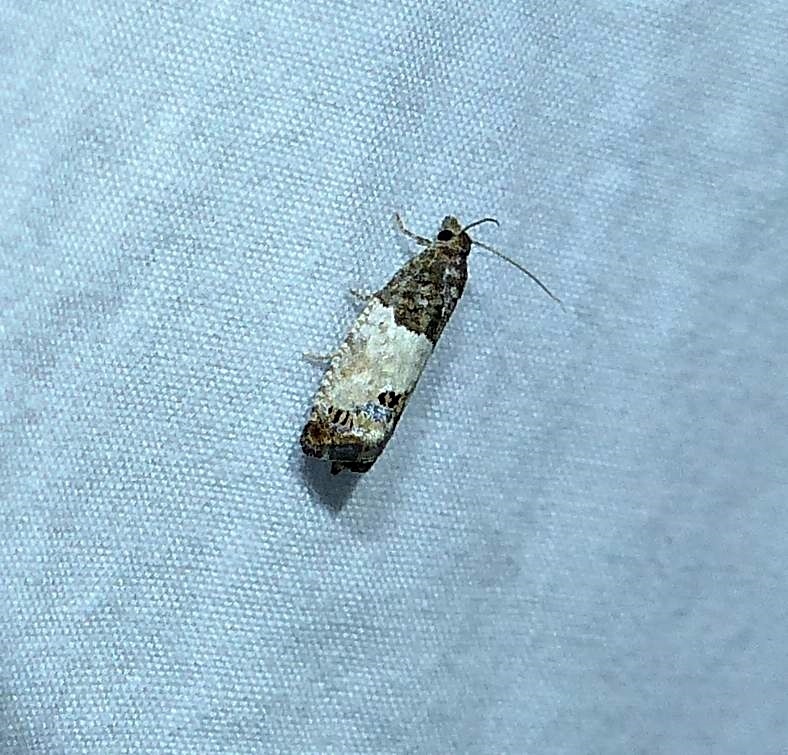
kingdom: Animalia
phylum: Arthropoda
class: Insecta
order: Lepidoptera
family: Tortricidae
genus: Spilonota
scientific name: Spilonota ocellana
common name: Bud moth
